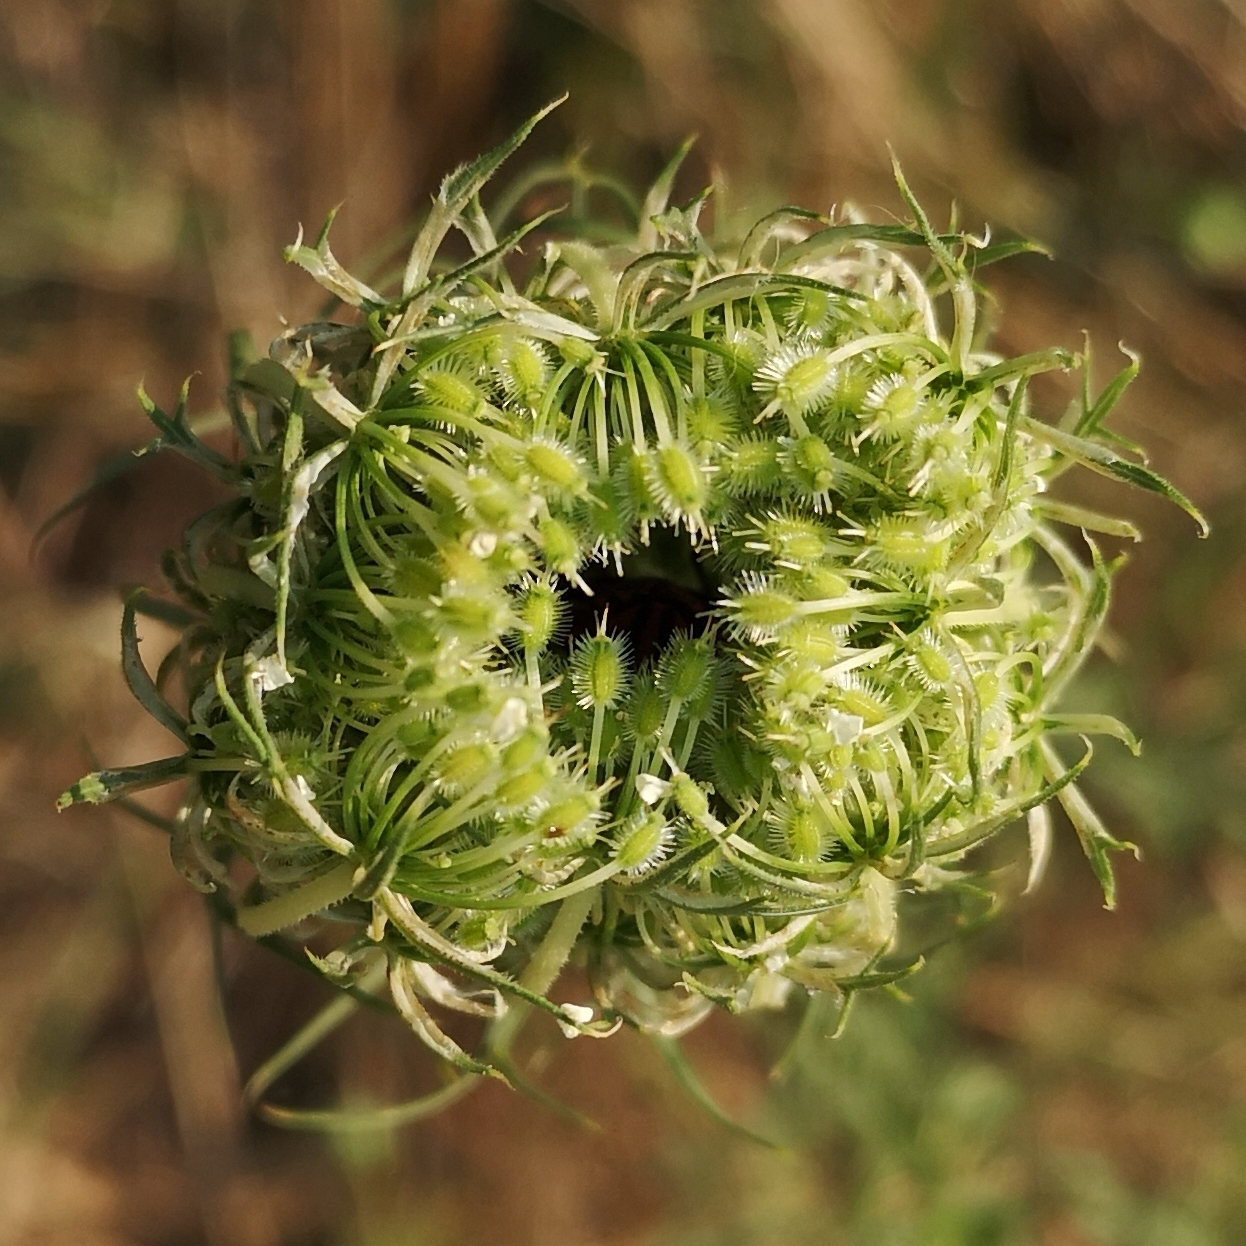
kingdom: Plantae
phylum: Tracheophyta
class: Magnoliopsida
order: Apiales
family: Apiaceae
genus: Daucus
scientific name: Daucus carota
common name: Wild carrot
